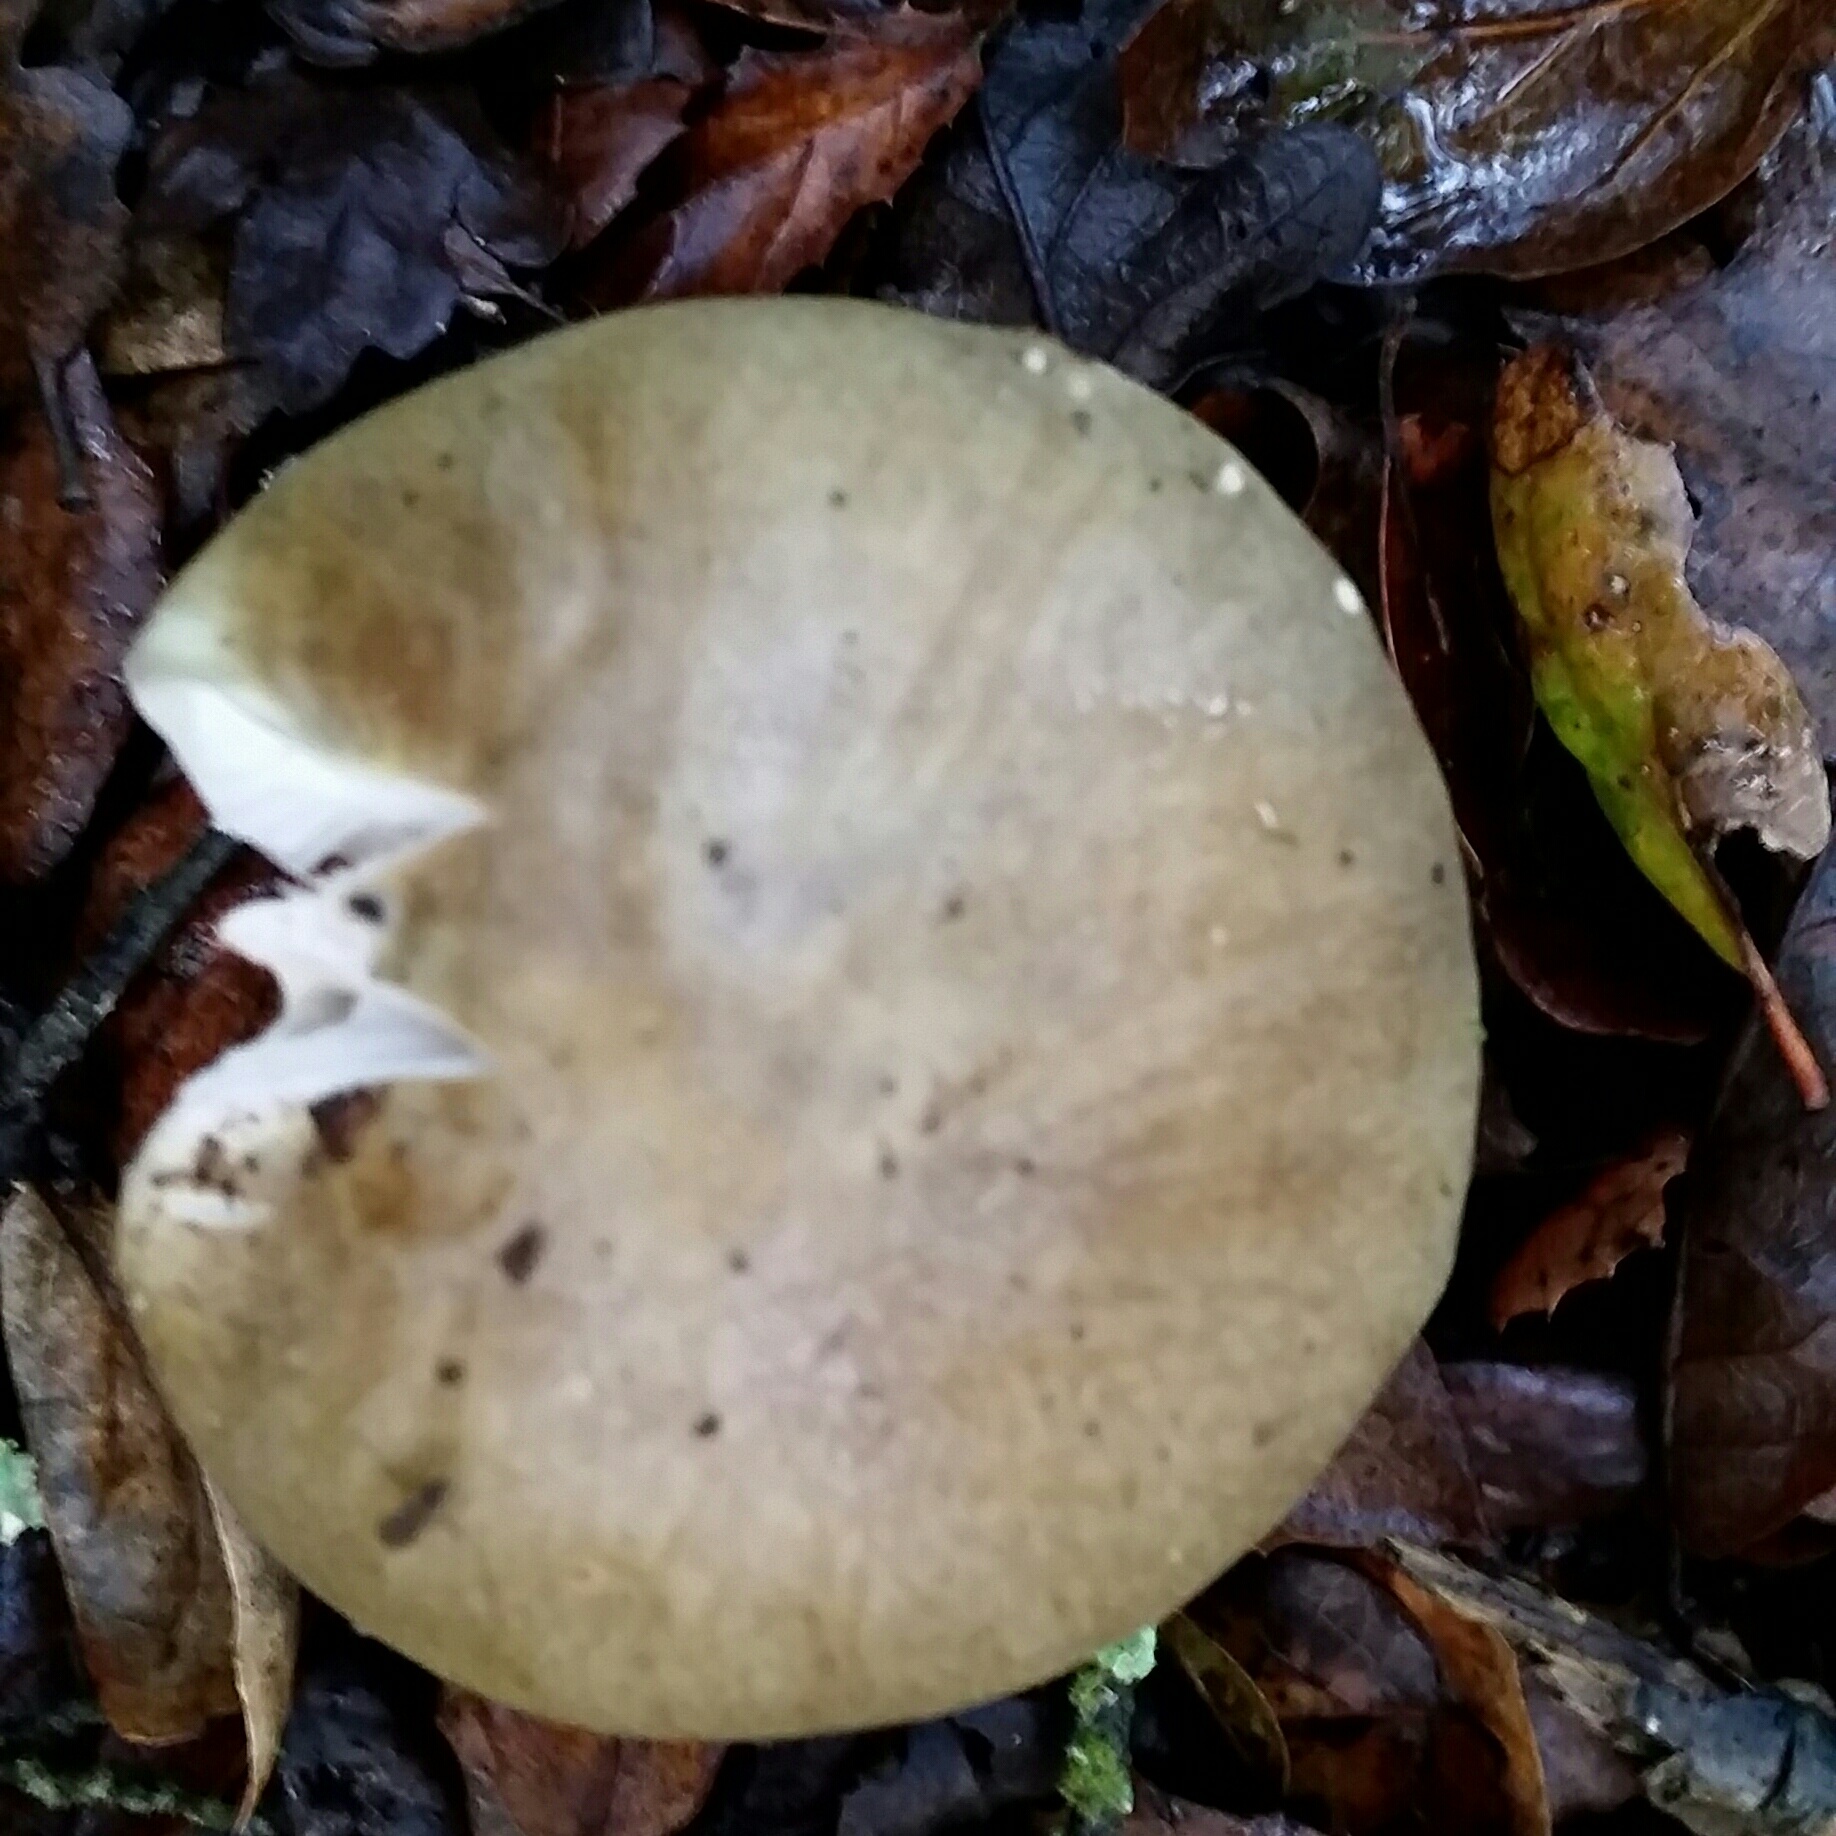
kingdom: Fungi
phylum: Basidiomycota
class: Agaricomycetes
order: Agaricales
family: Amanitaceae
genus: Amanita
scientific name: Amanita phalloides
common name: Death cap
